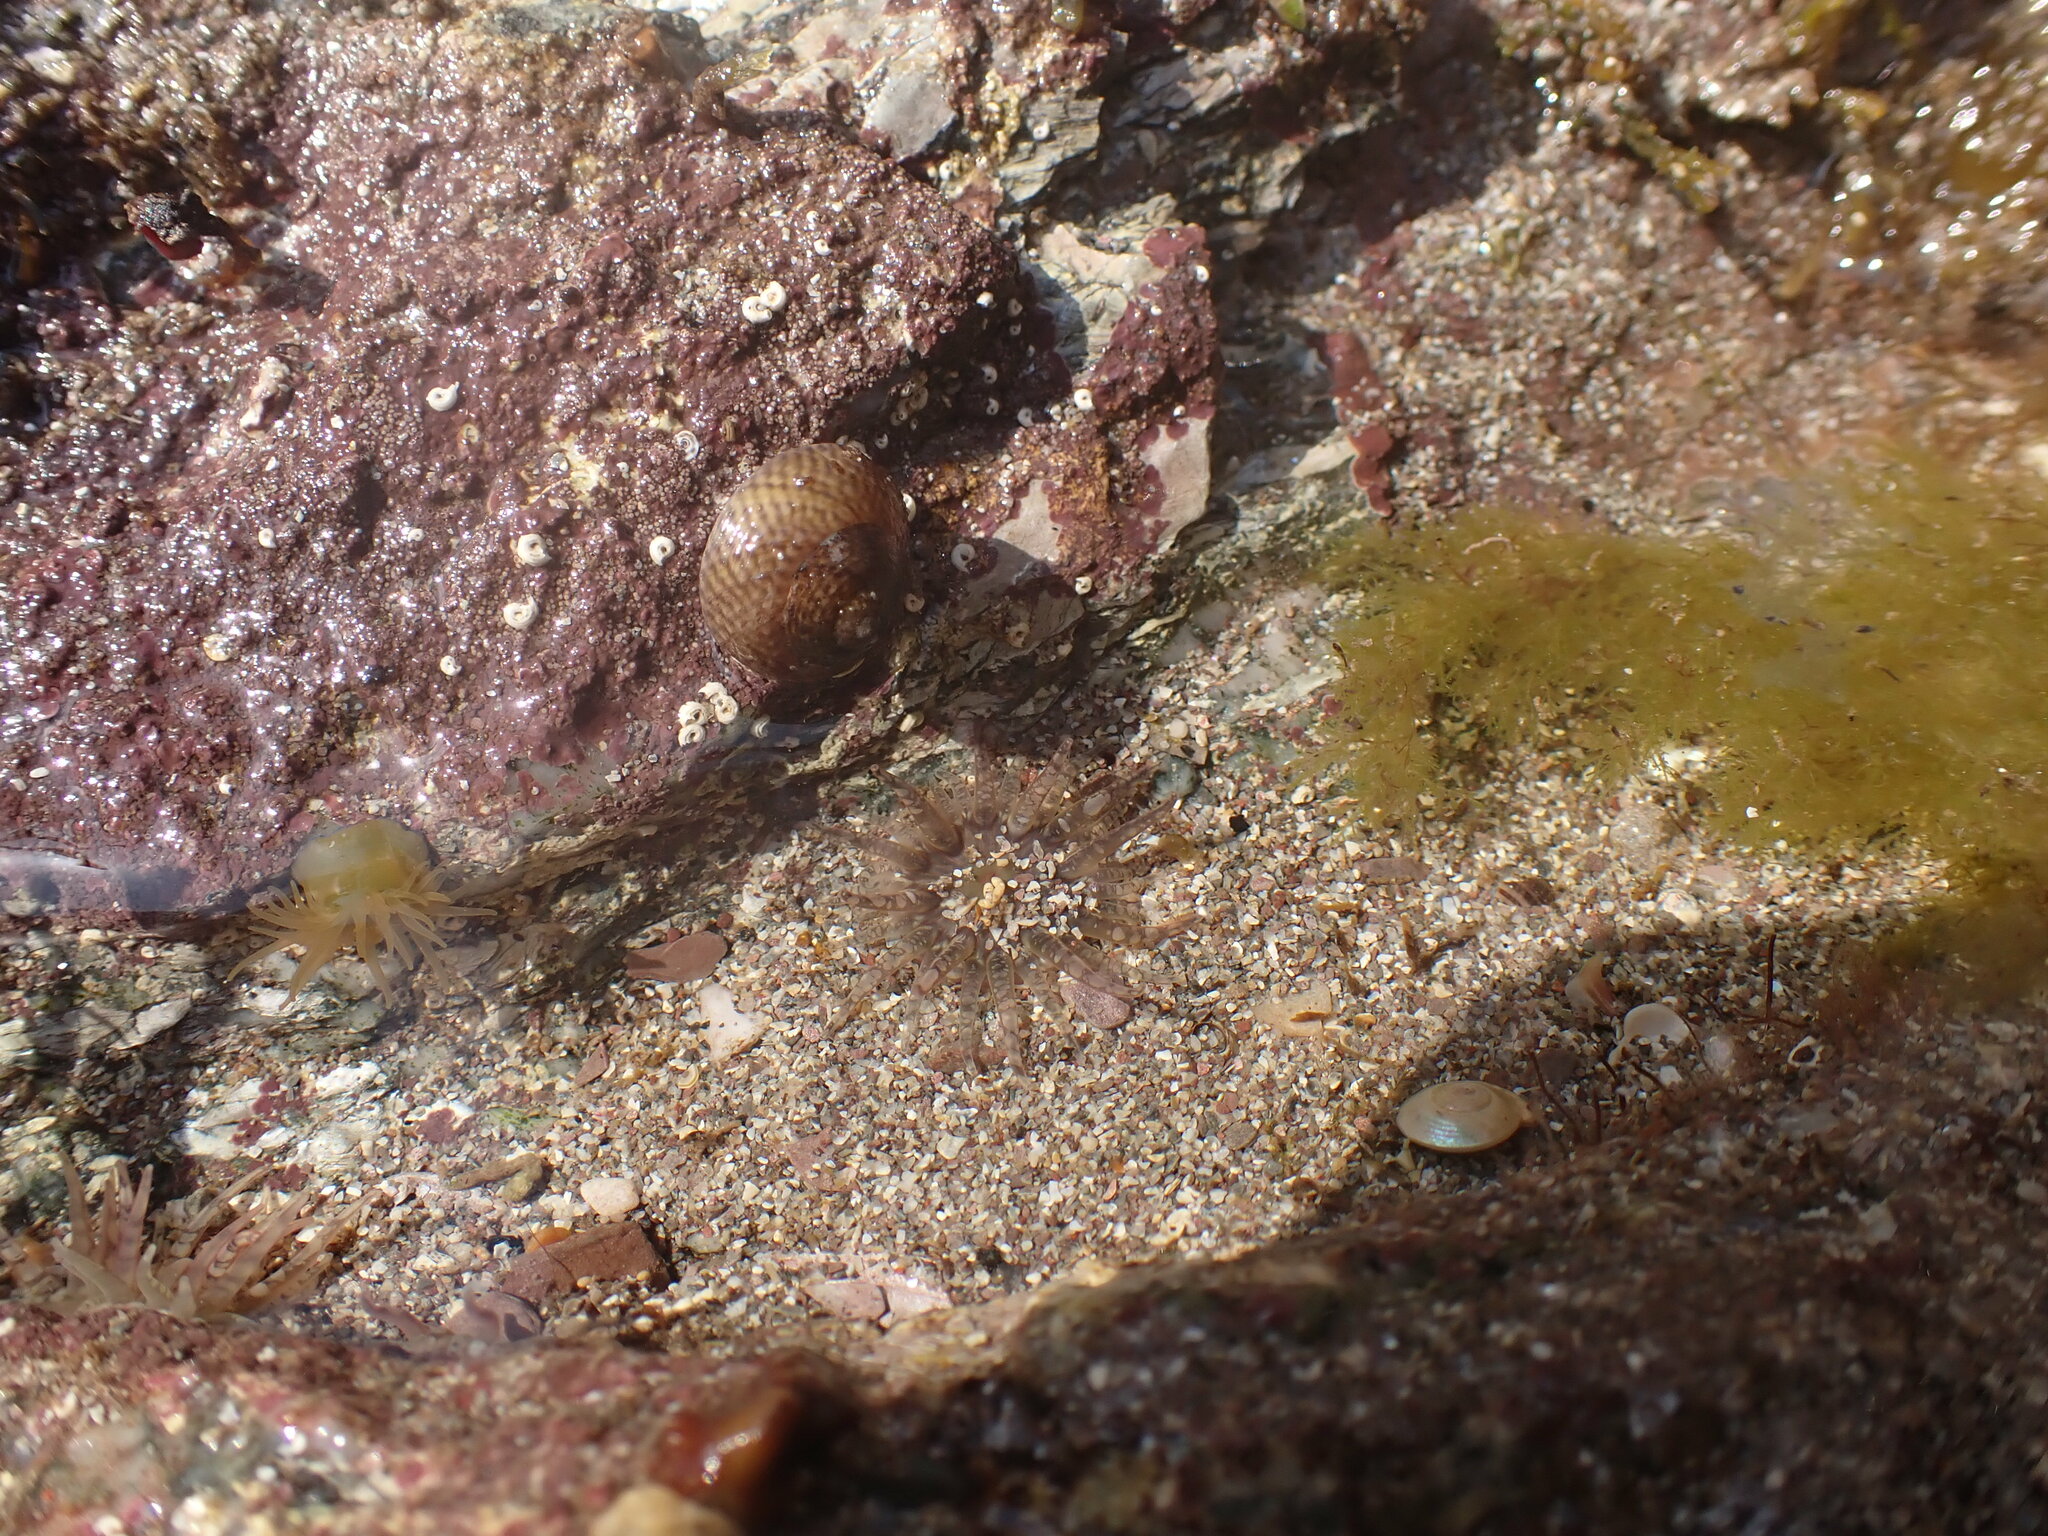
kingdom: Animalia
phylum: Cnidaria
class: Anthozoa
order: Actiniaria
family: Actiniidae
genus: Bunodactis
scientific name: Bunodactis verrucosa
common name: Gem anemone
